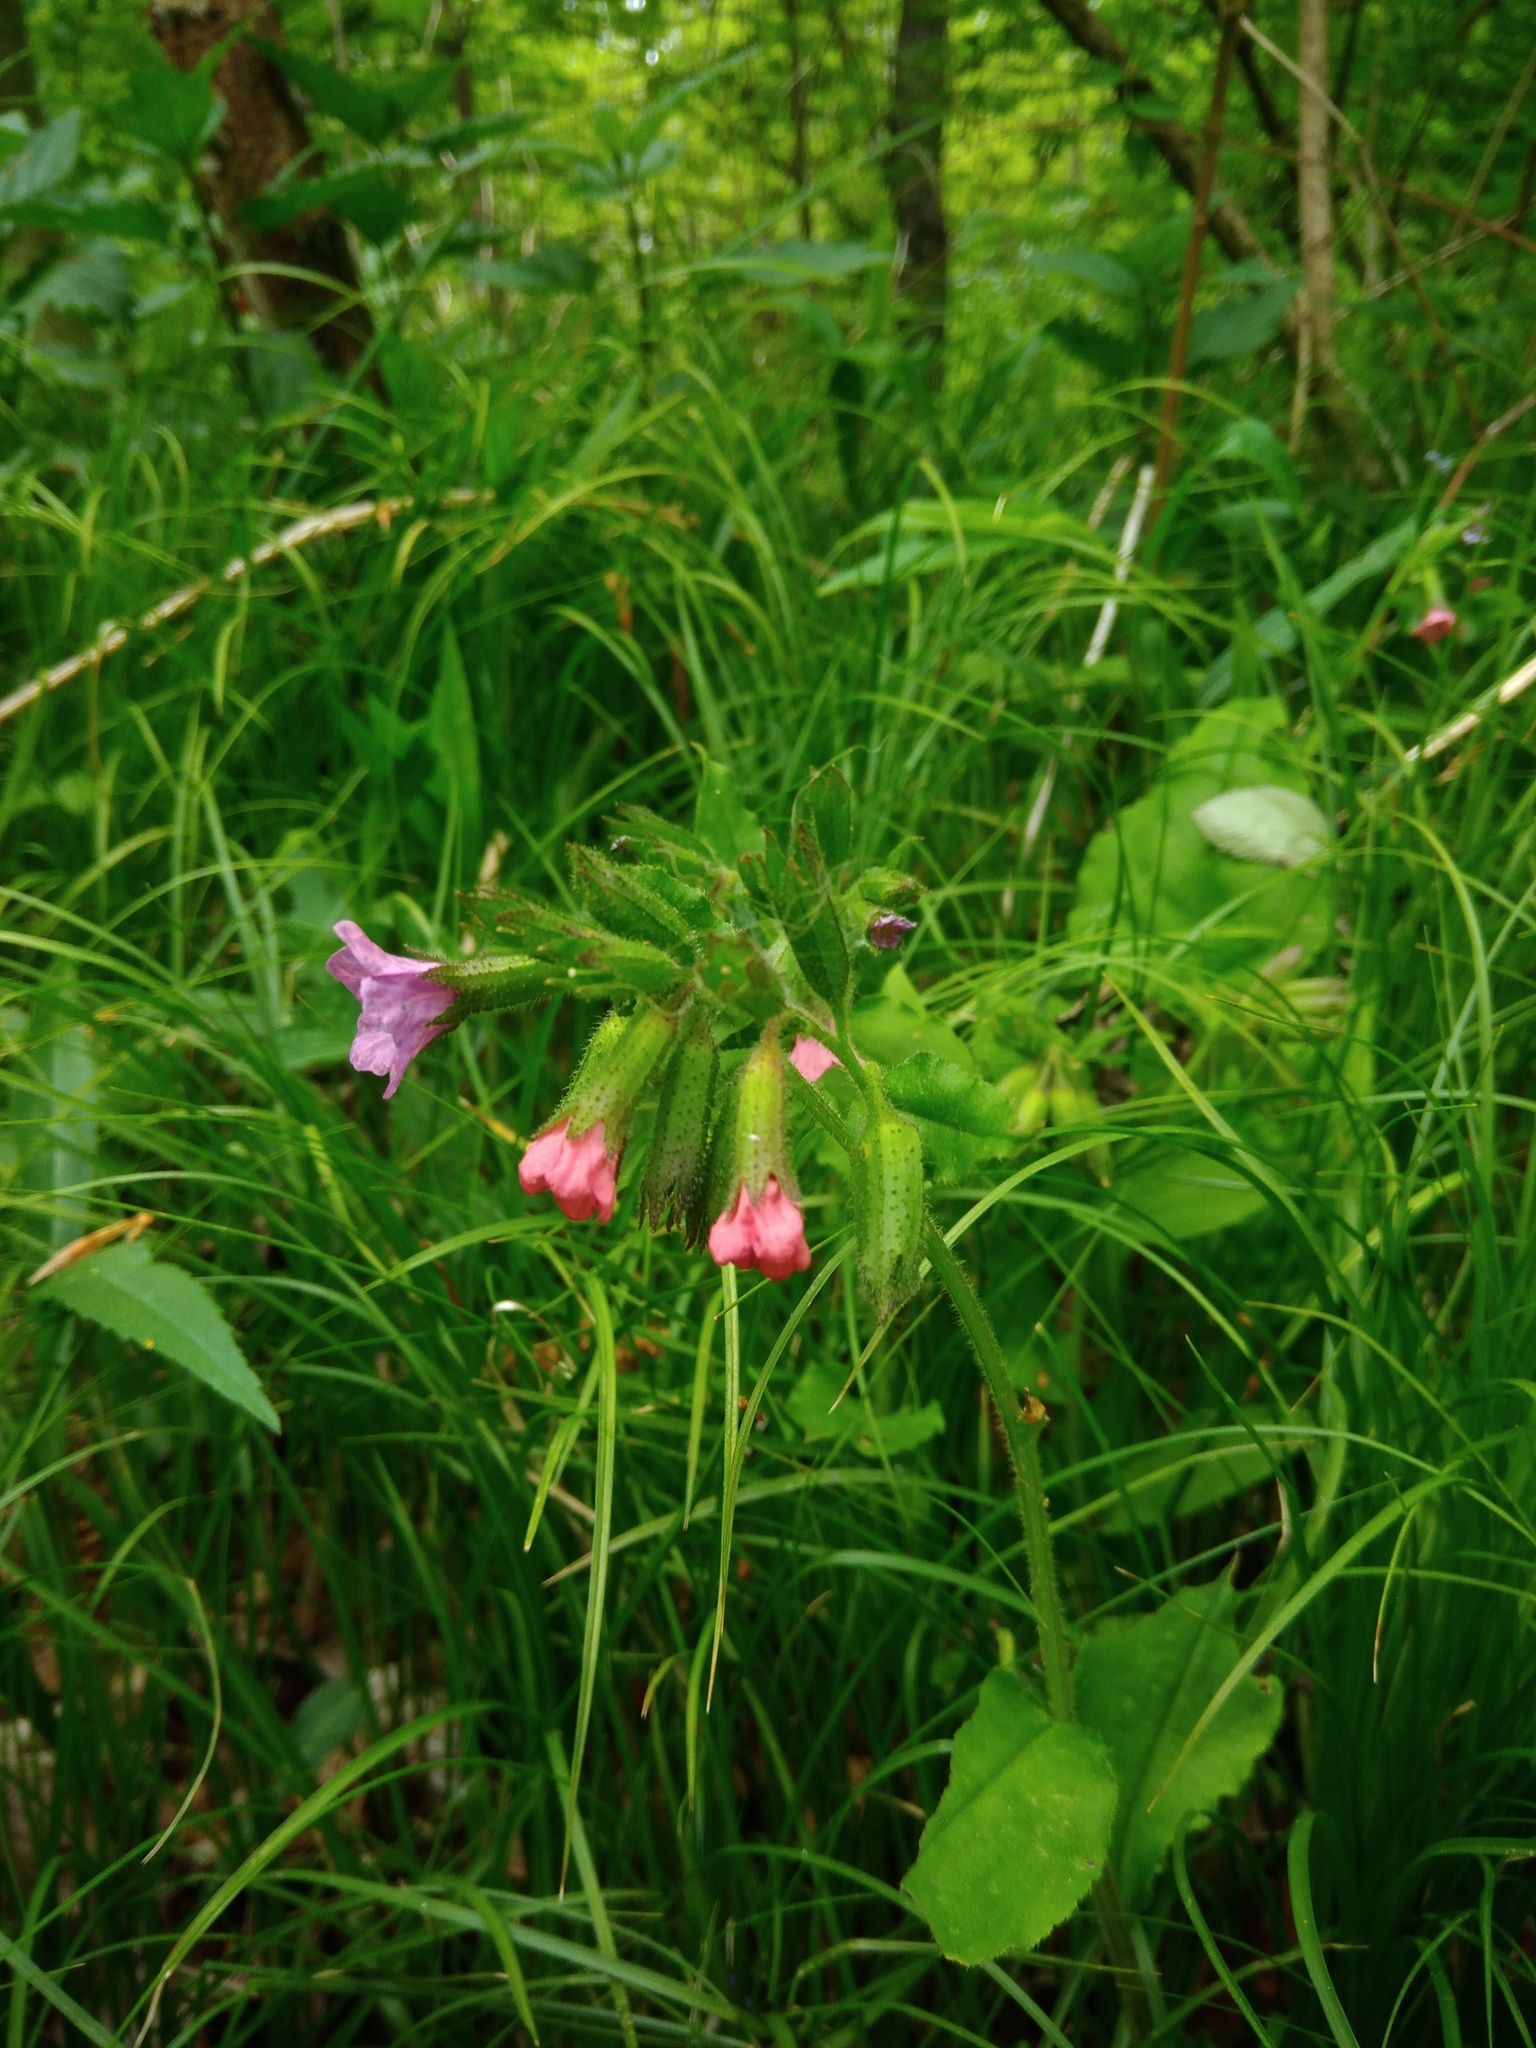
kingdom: Plantae
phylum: Tracheophyta
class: Magnoliopsida
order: Boraginales
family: Boraginaceae
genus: Pulmonaria
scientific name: Pulmonaria obscura
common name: Suffolk lungwort
